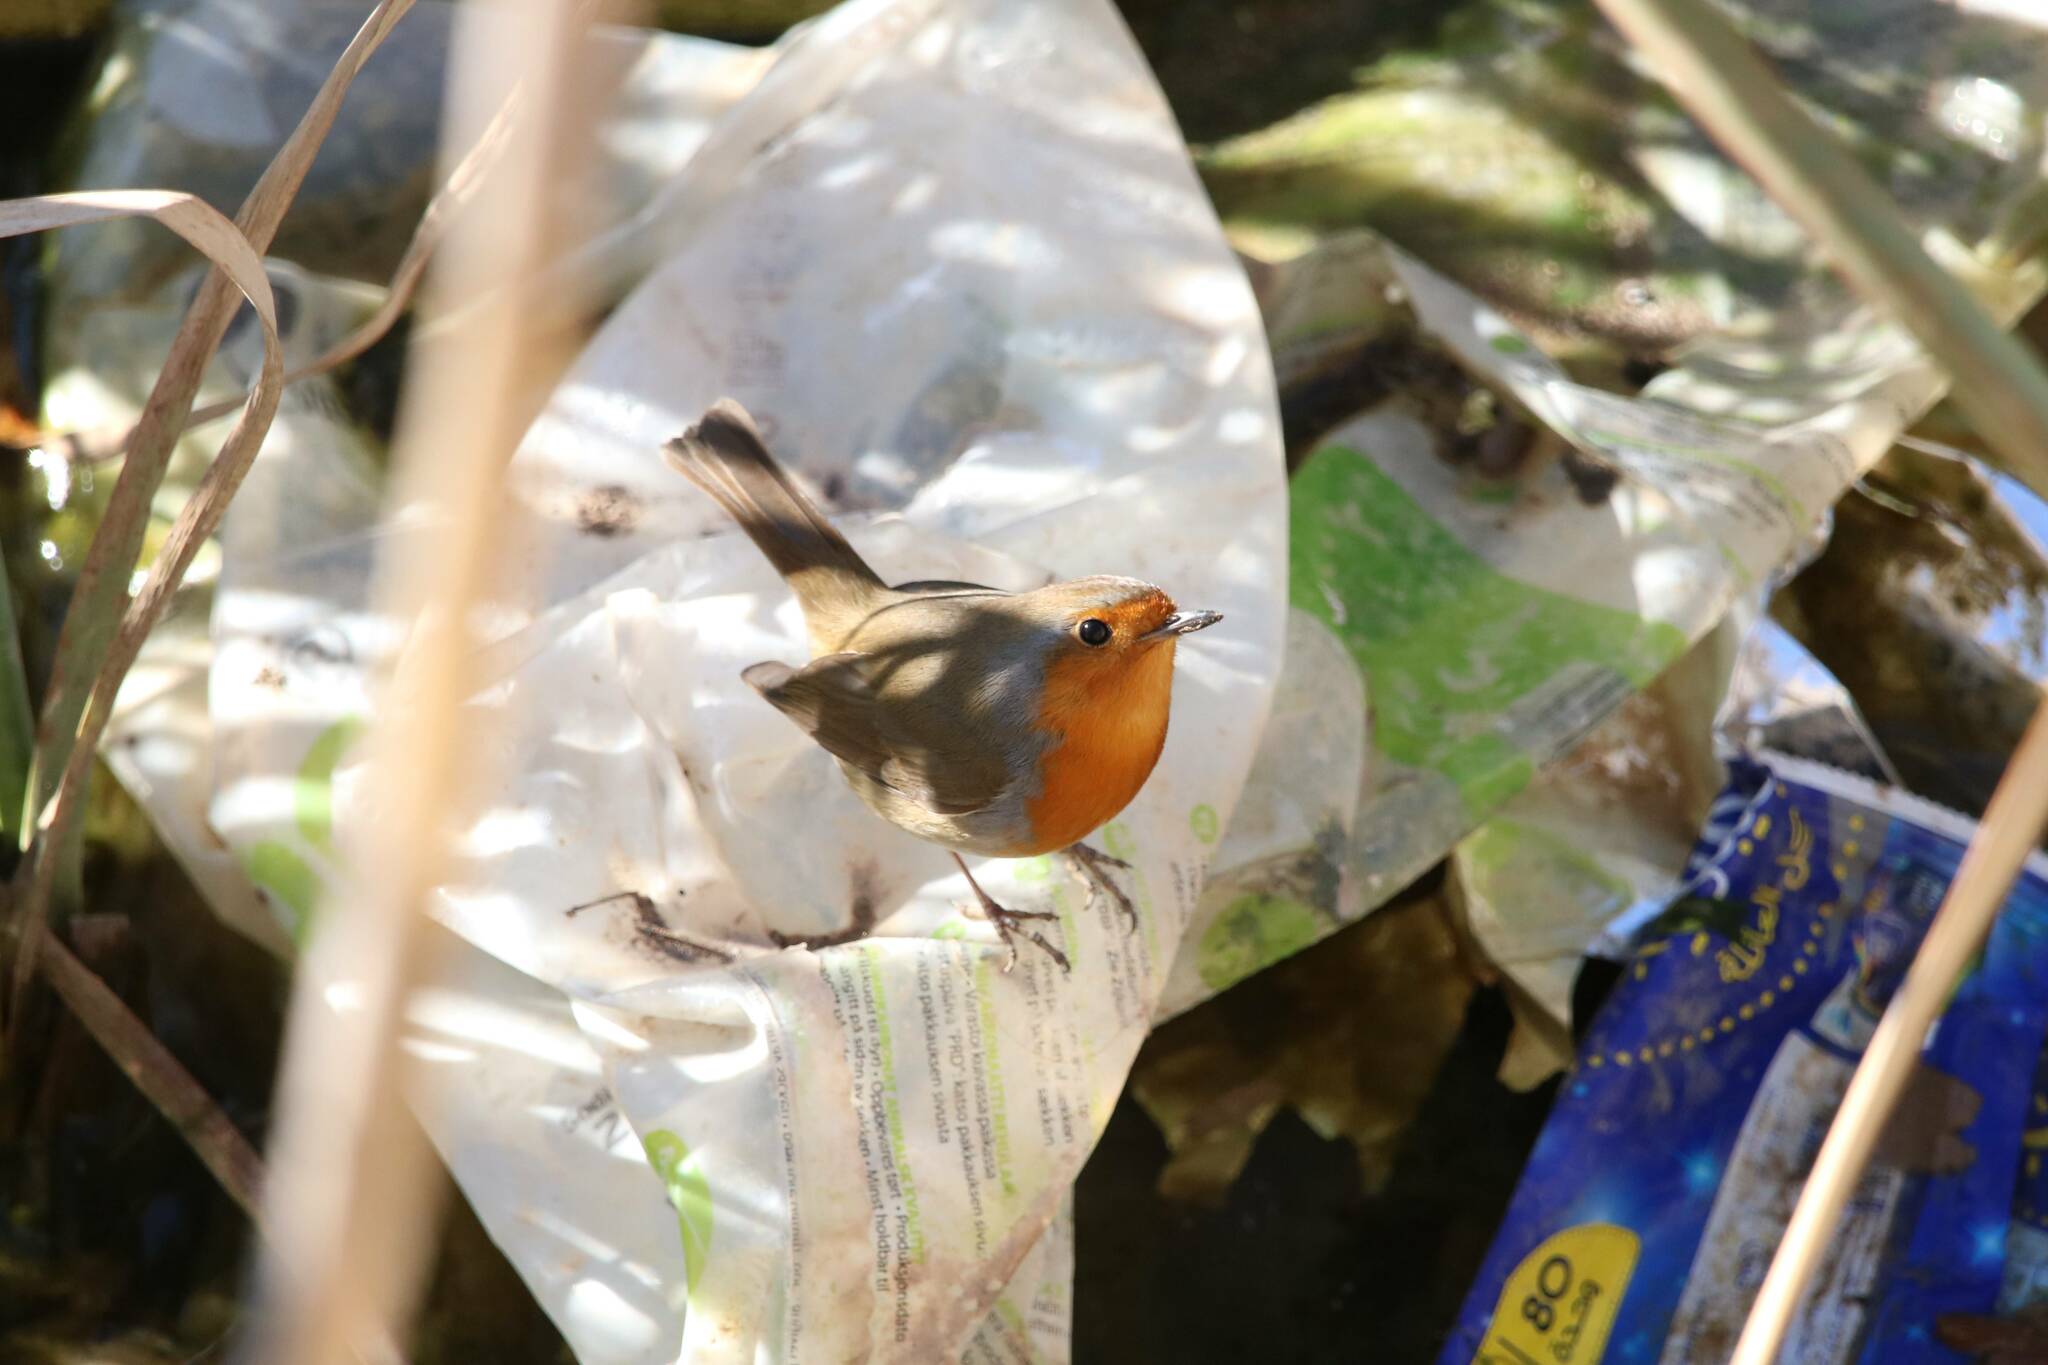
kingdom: Animalia
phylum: Chordata
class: Aves
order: Passeriformes
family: Muscicapidae
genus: Erithacus
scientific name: Erithacus rubecula
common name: European robin
